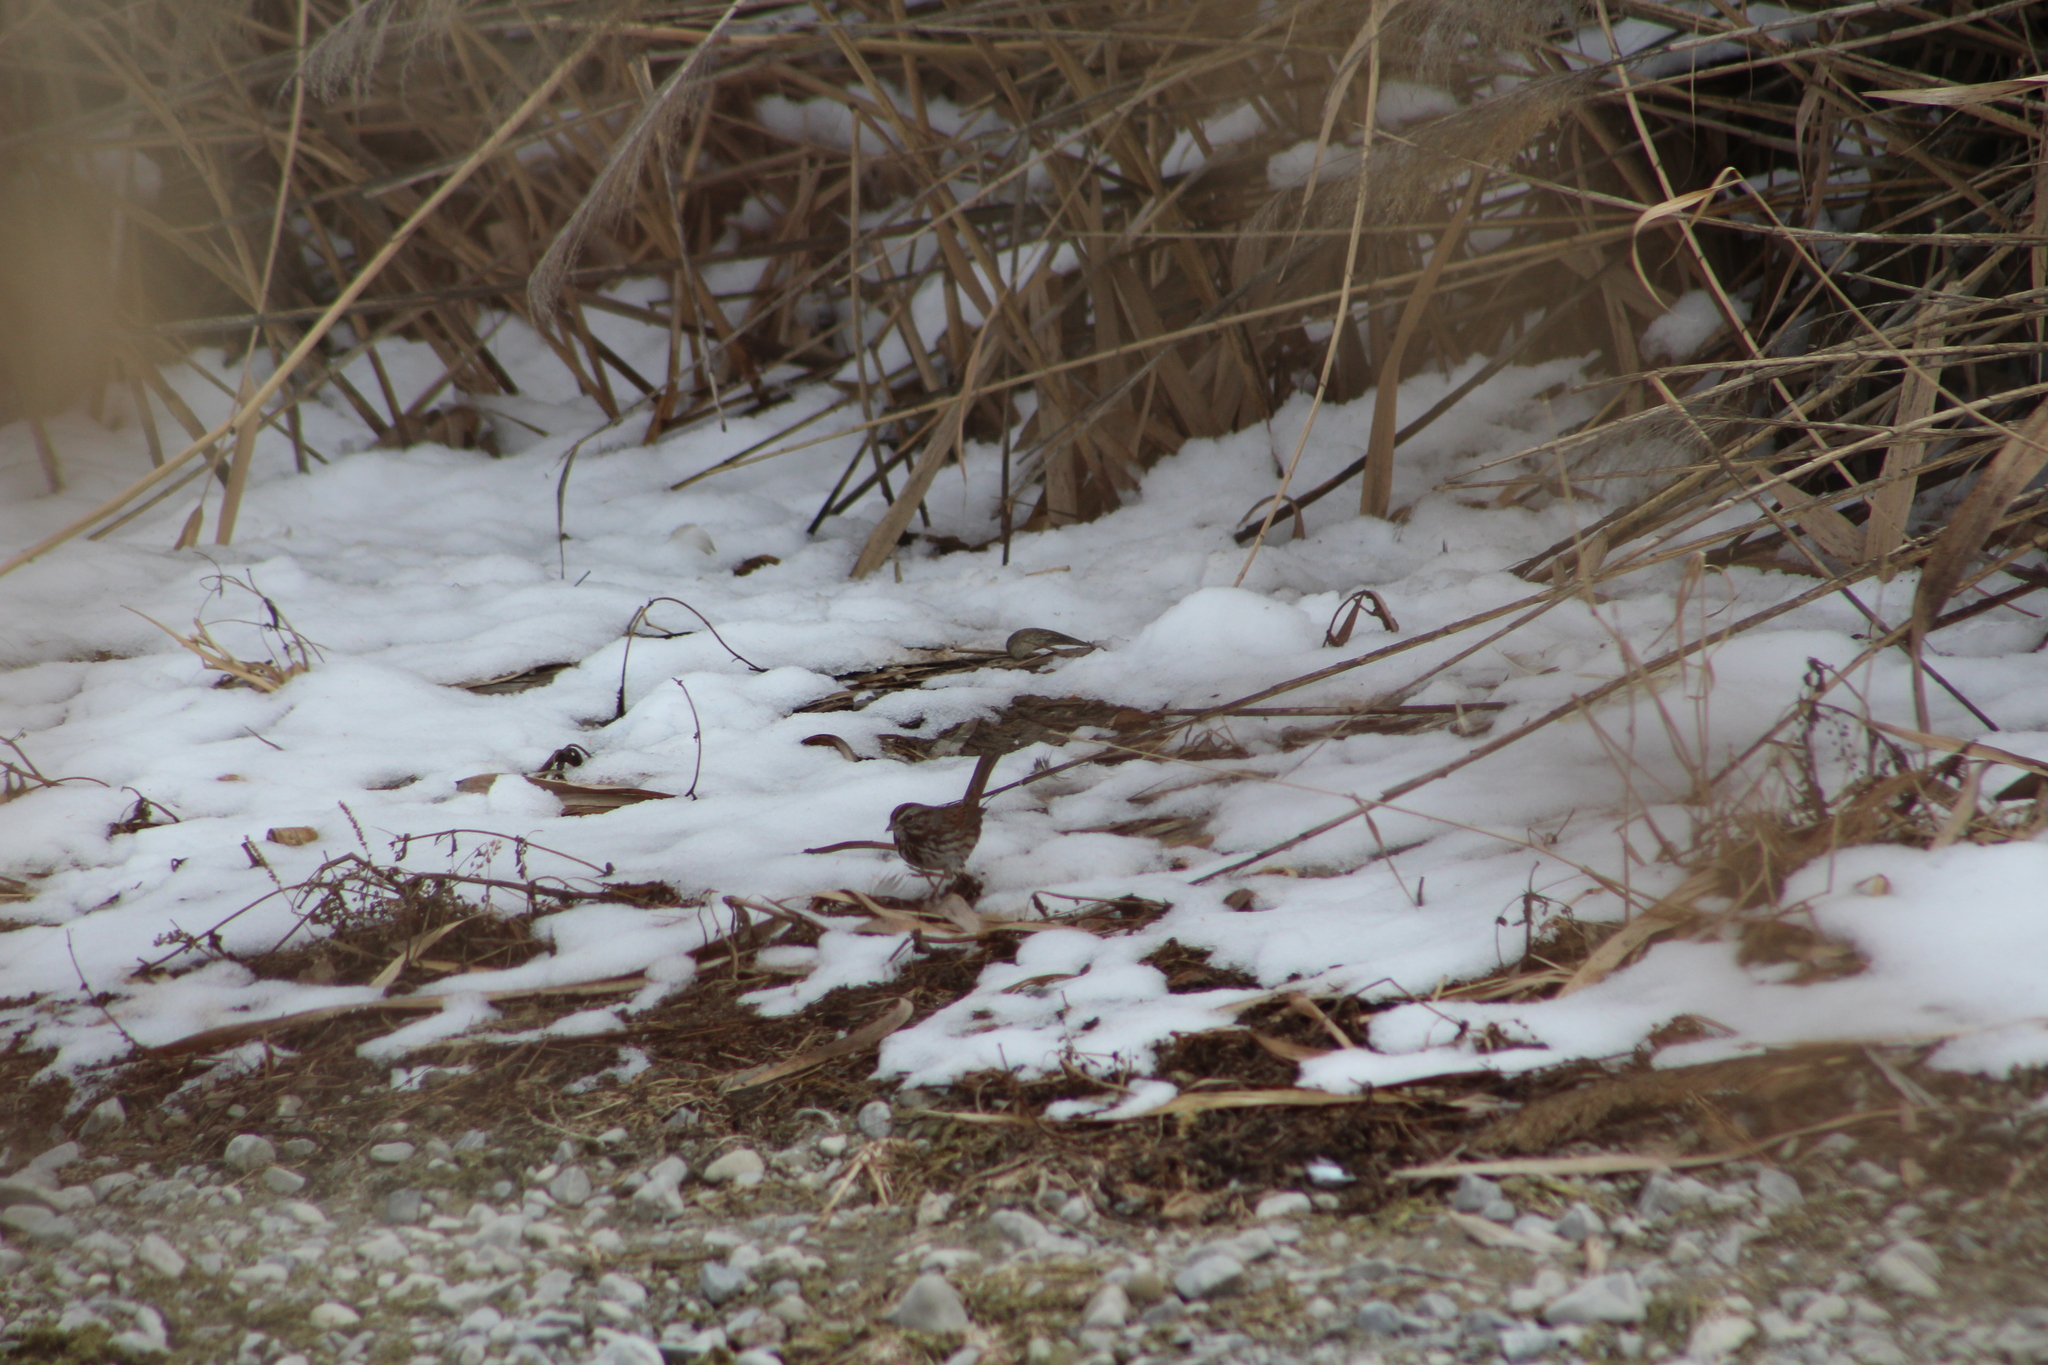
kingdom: Animalia
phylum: Chordata
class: Aves
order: Passeriformes
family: Passerellidae
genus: Melospiza
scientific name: Melospiza melodia
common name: Song sparrow
